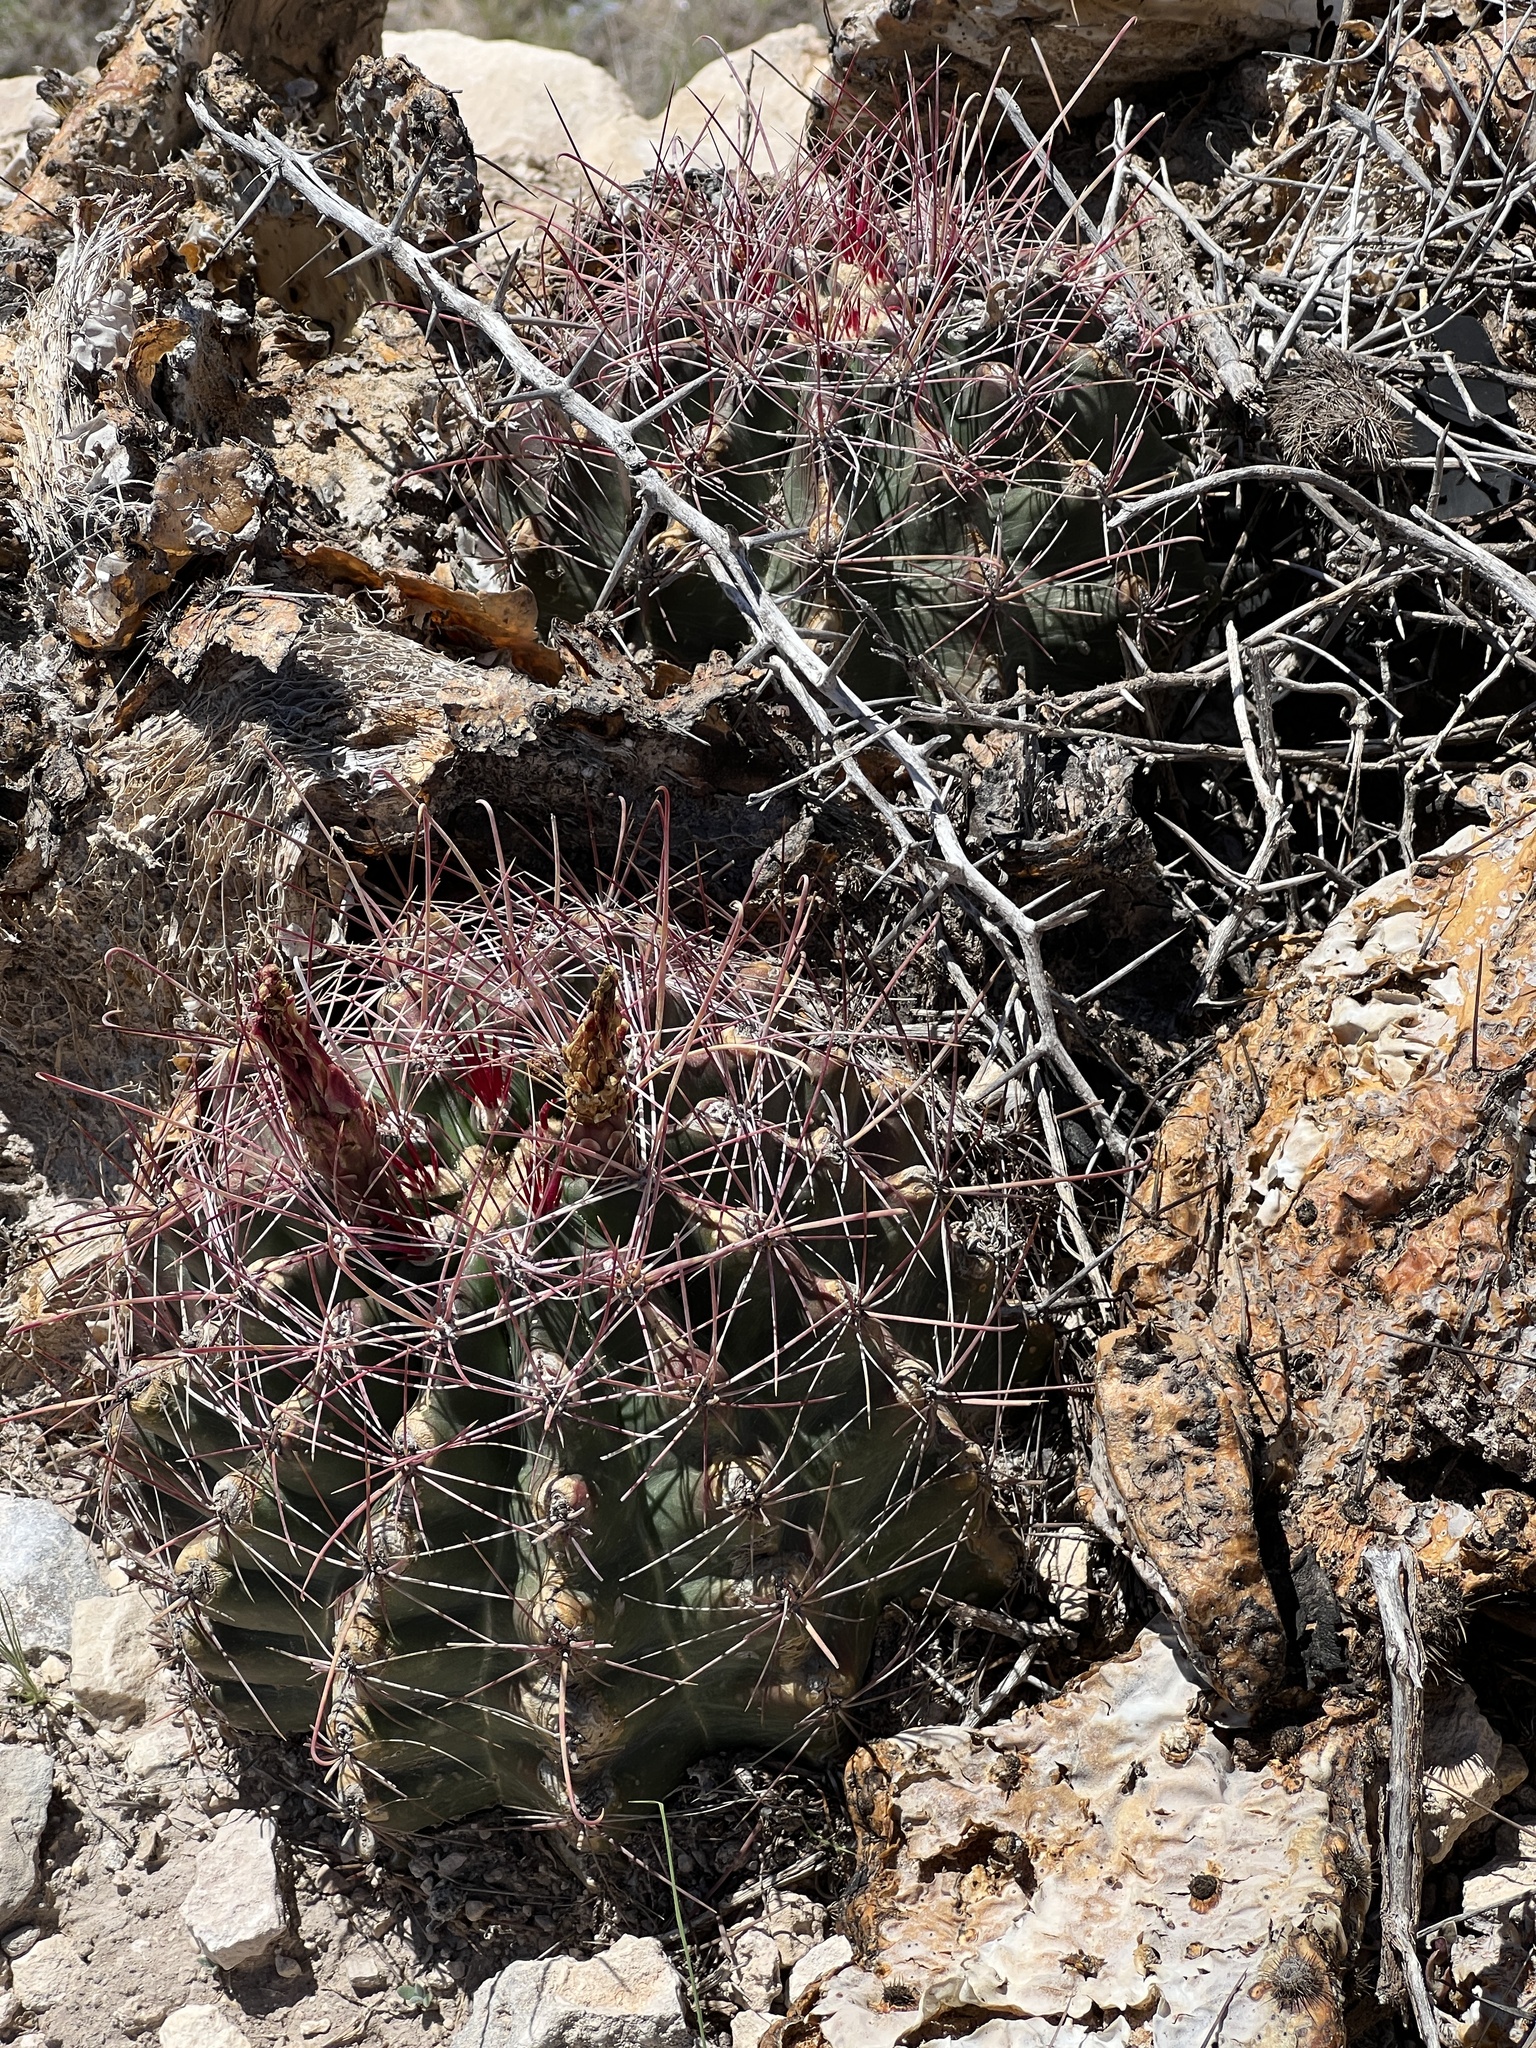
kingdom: Plantae
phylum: Tracheophyta
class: Magnoliopsida
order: Caryophyllales
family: Cactaceae
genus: Bisnaga
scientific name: Bisnaga hamatacantha
